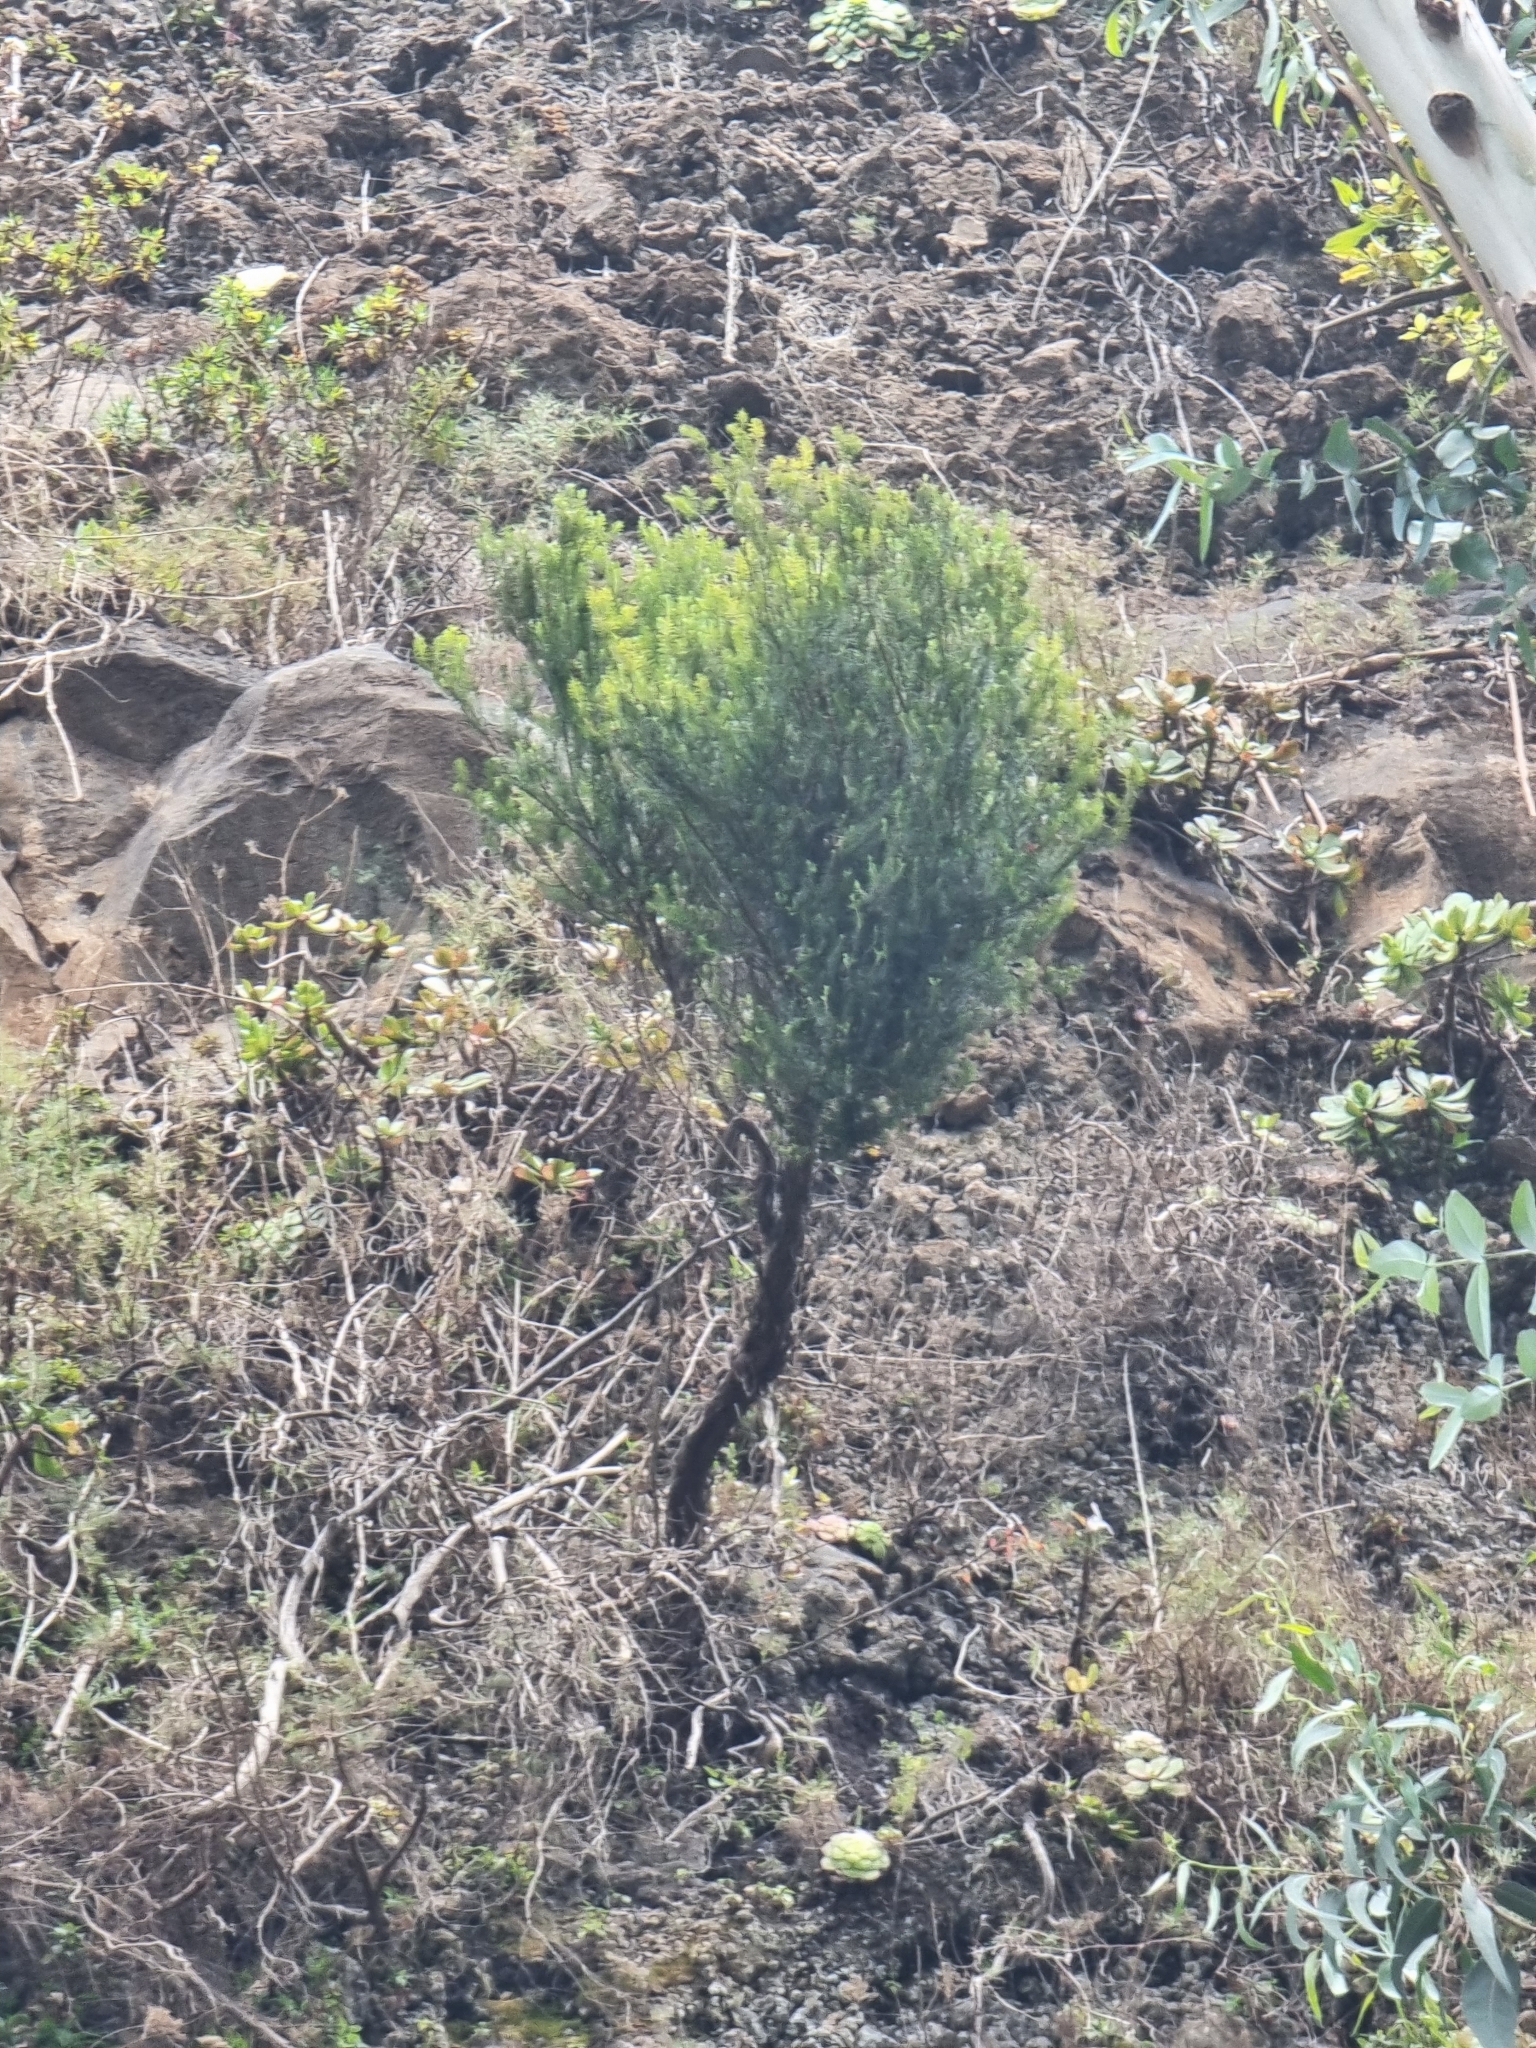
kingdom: Plantae
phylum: Tracheophyta
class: Magnoliopsida
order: Ericales
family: Ericaceae
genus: Erica
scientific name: Erica platycodon
